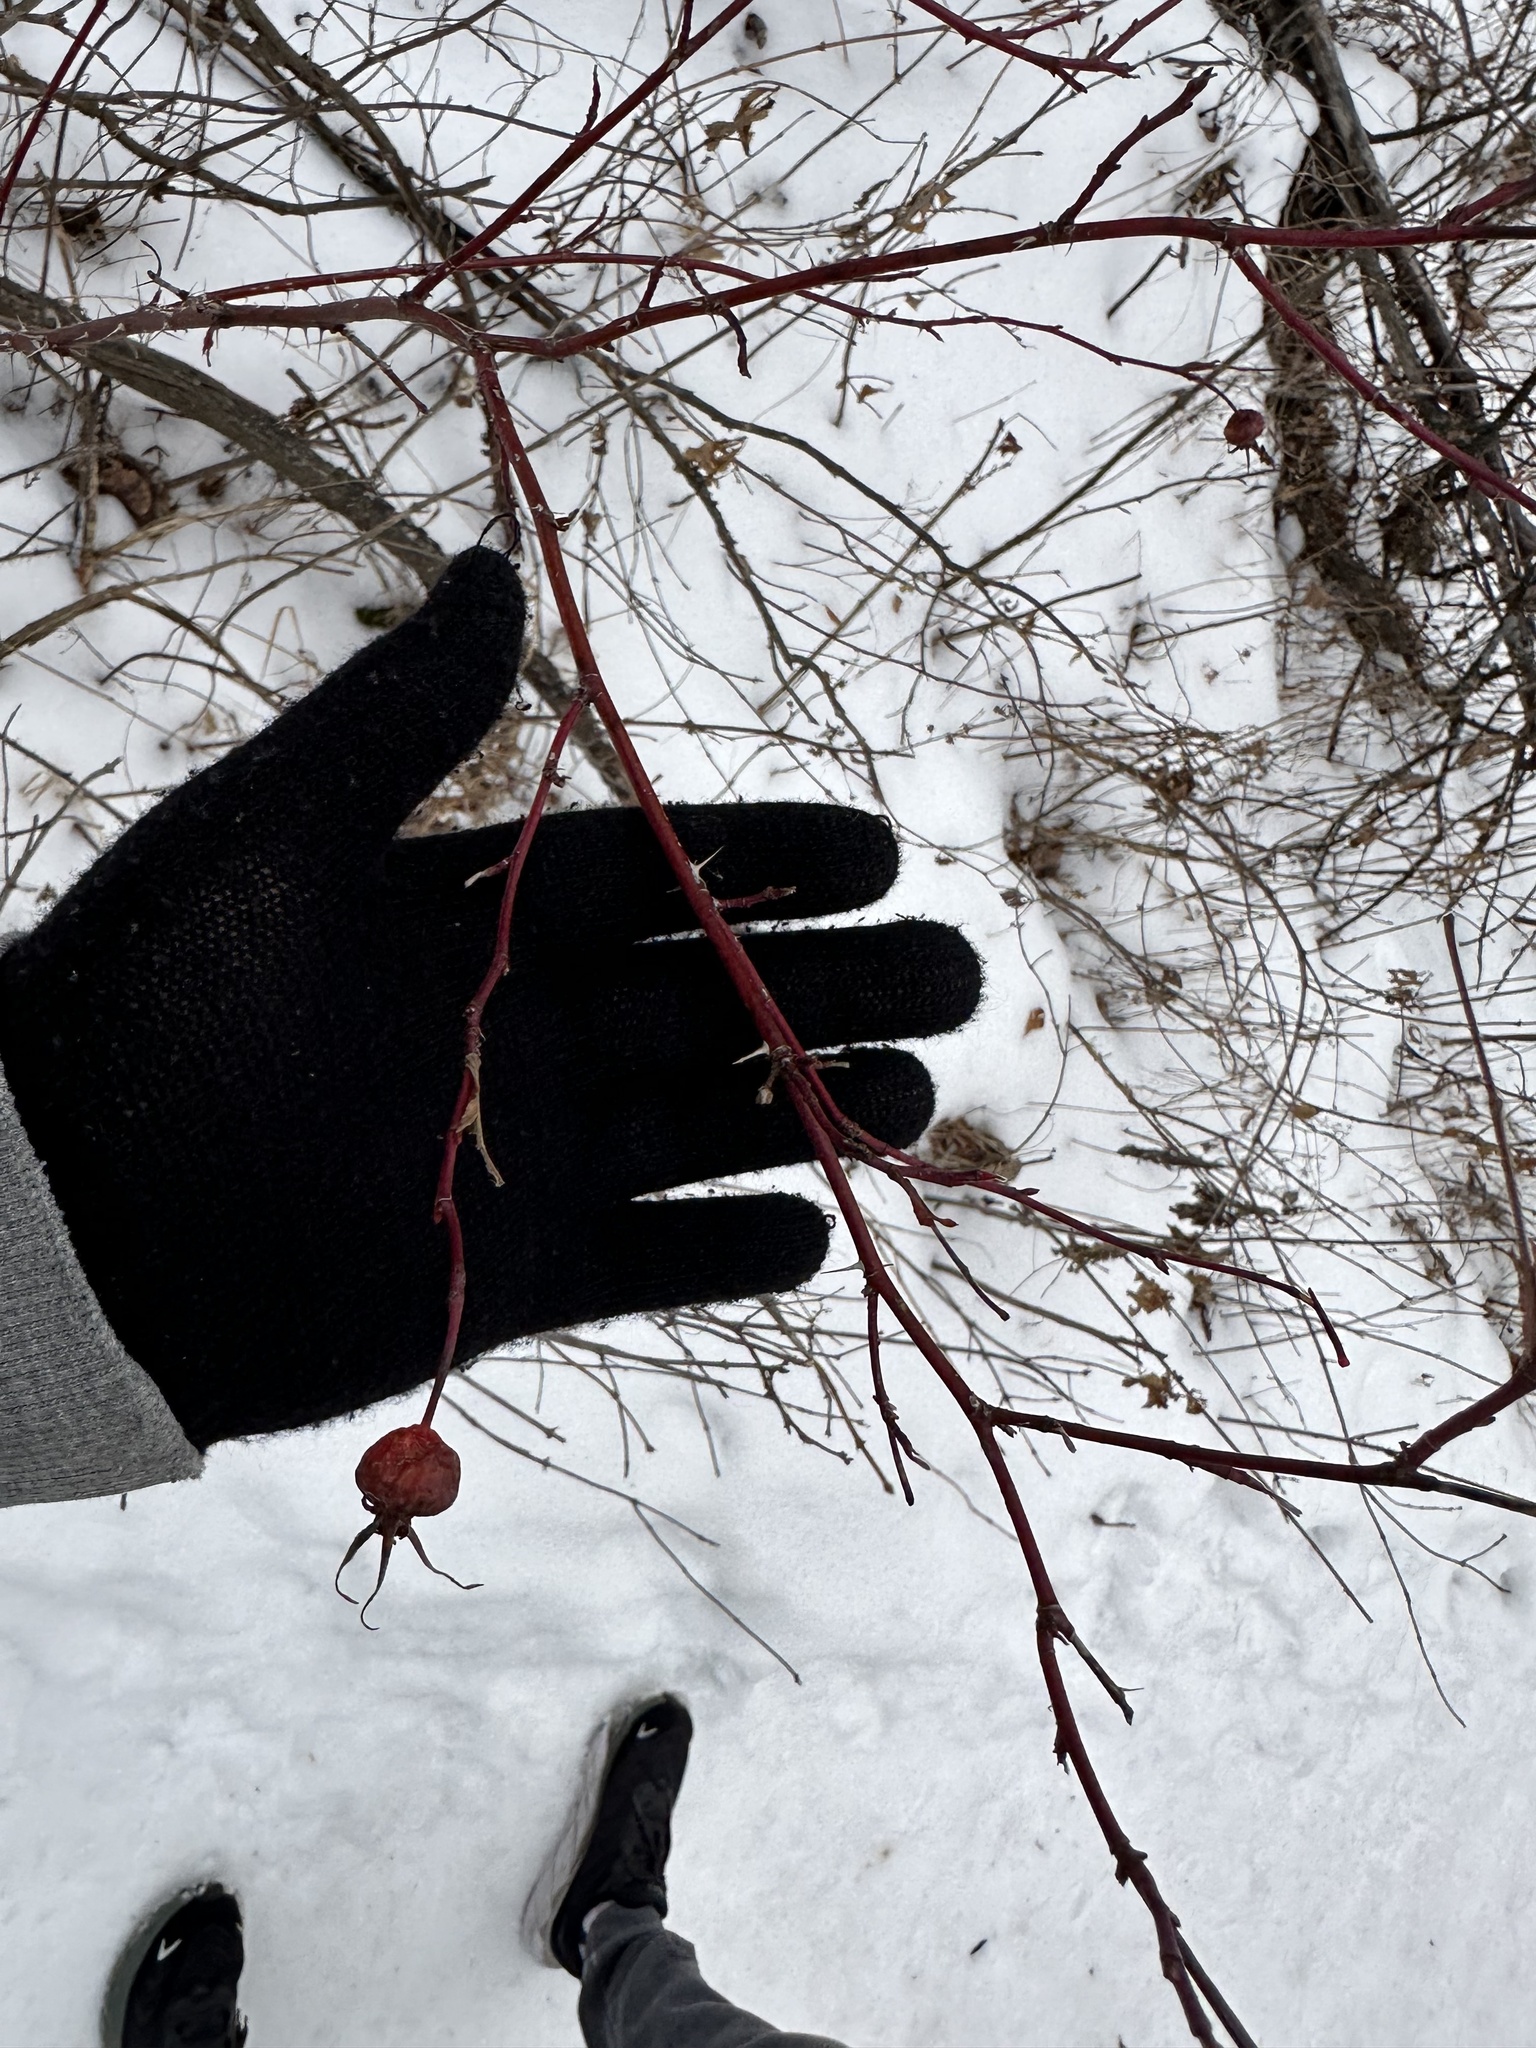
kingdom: Plantae
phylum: Tracheophyta
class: Magnoliopsida
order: Rosales
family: Rosaceae
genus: Rosa
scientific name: Rosa woodsii
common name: Woods's rose
